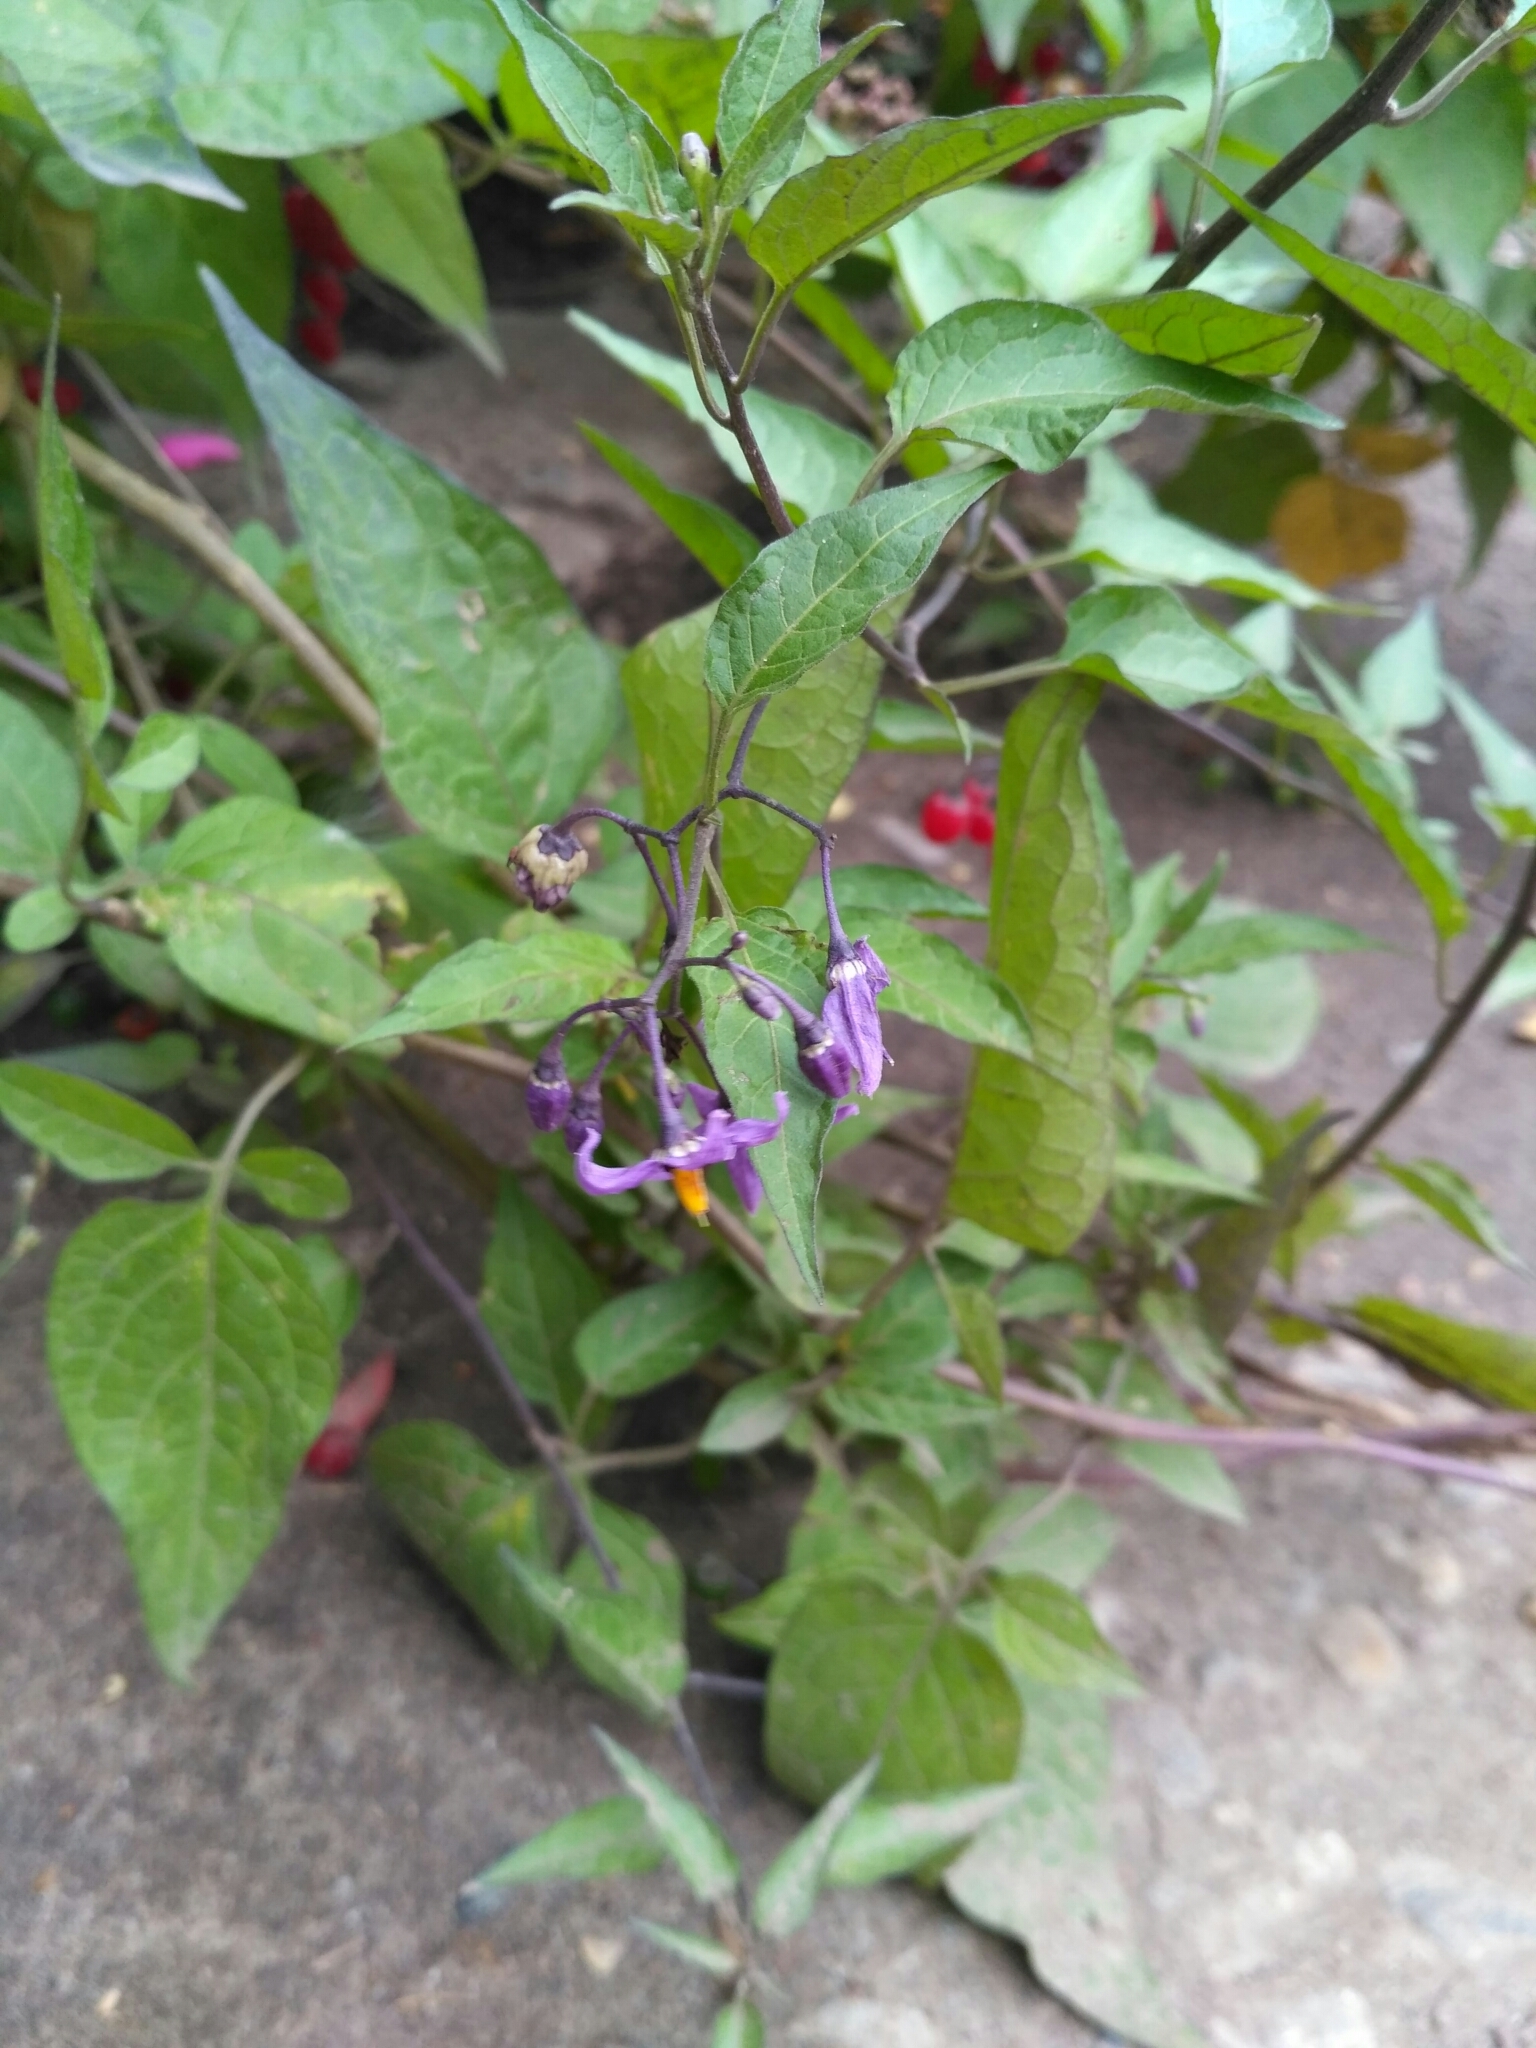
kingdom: Plantae
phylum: Tracheophyta
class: Magnoliopsida
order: Solanales
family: Solanaceae
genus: Solanum
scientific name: Solanum dulcamara
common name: Climbing nightshade
